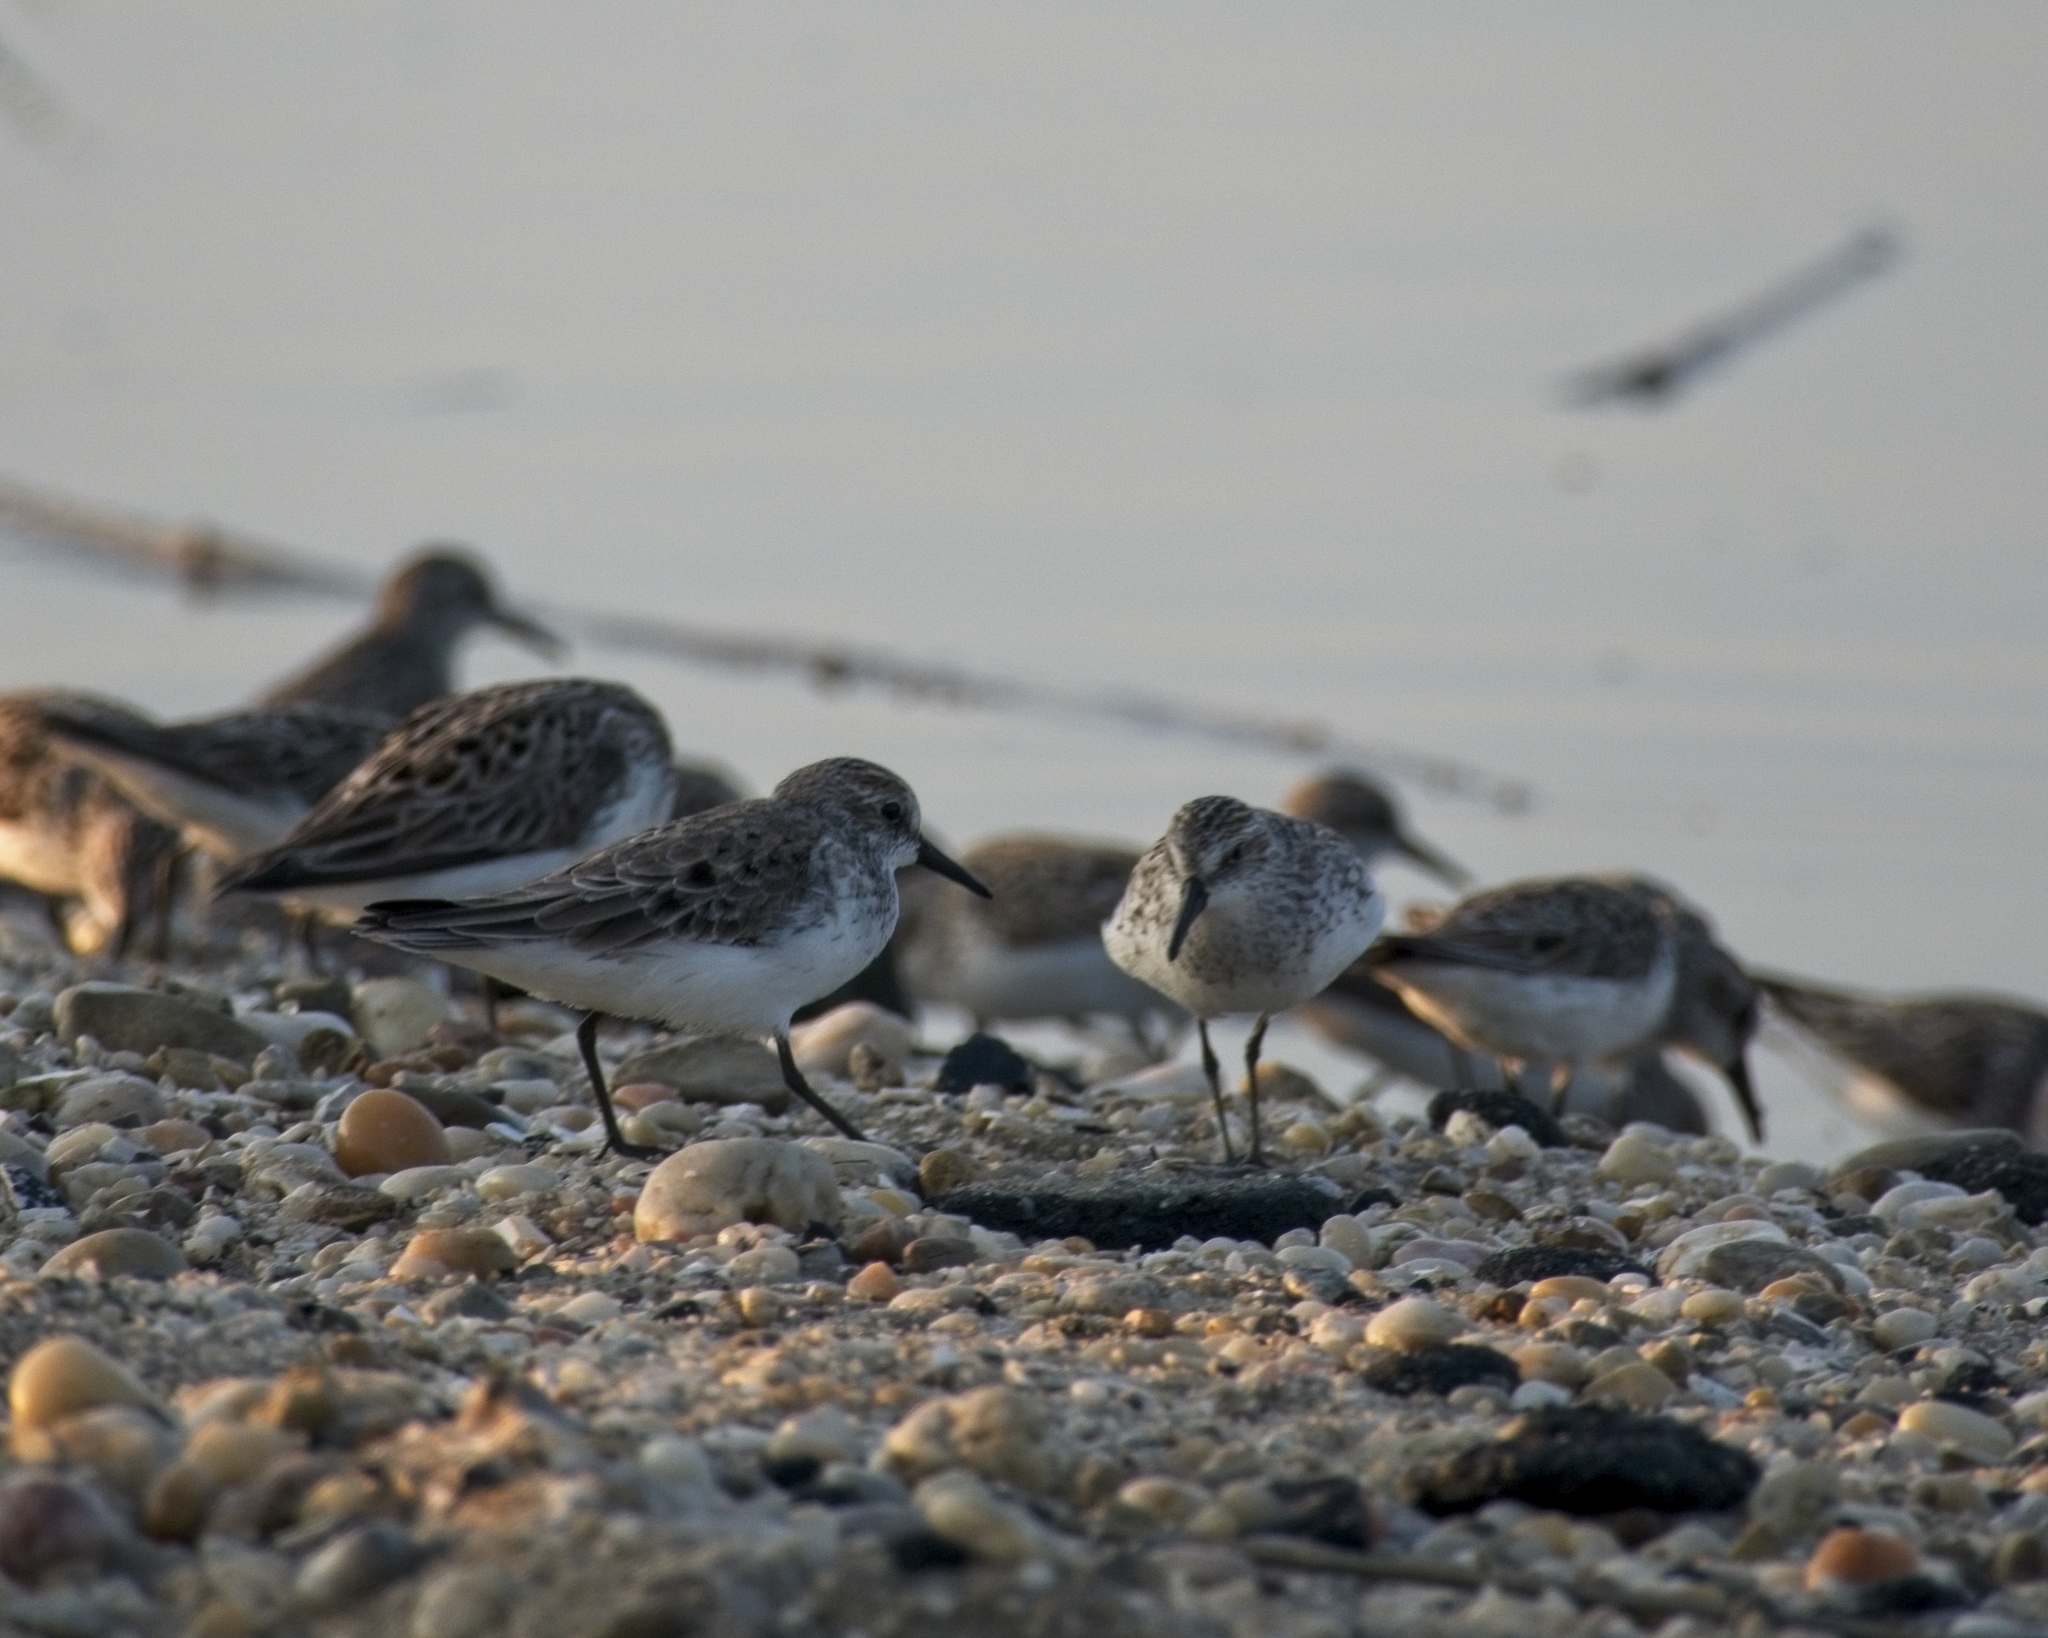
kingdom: Animalia
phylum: Chordata
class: Aves
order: Charadriiformes
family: Scolopacidae
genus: Calidris
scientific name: Calidris pusilla
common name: Semipalmated sandpiper
